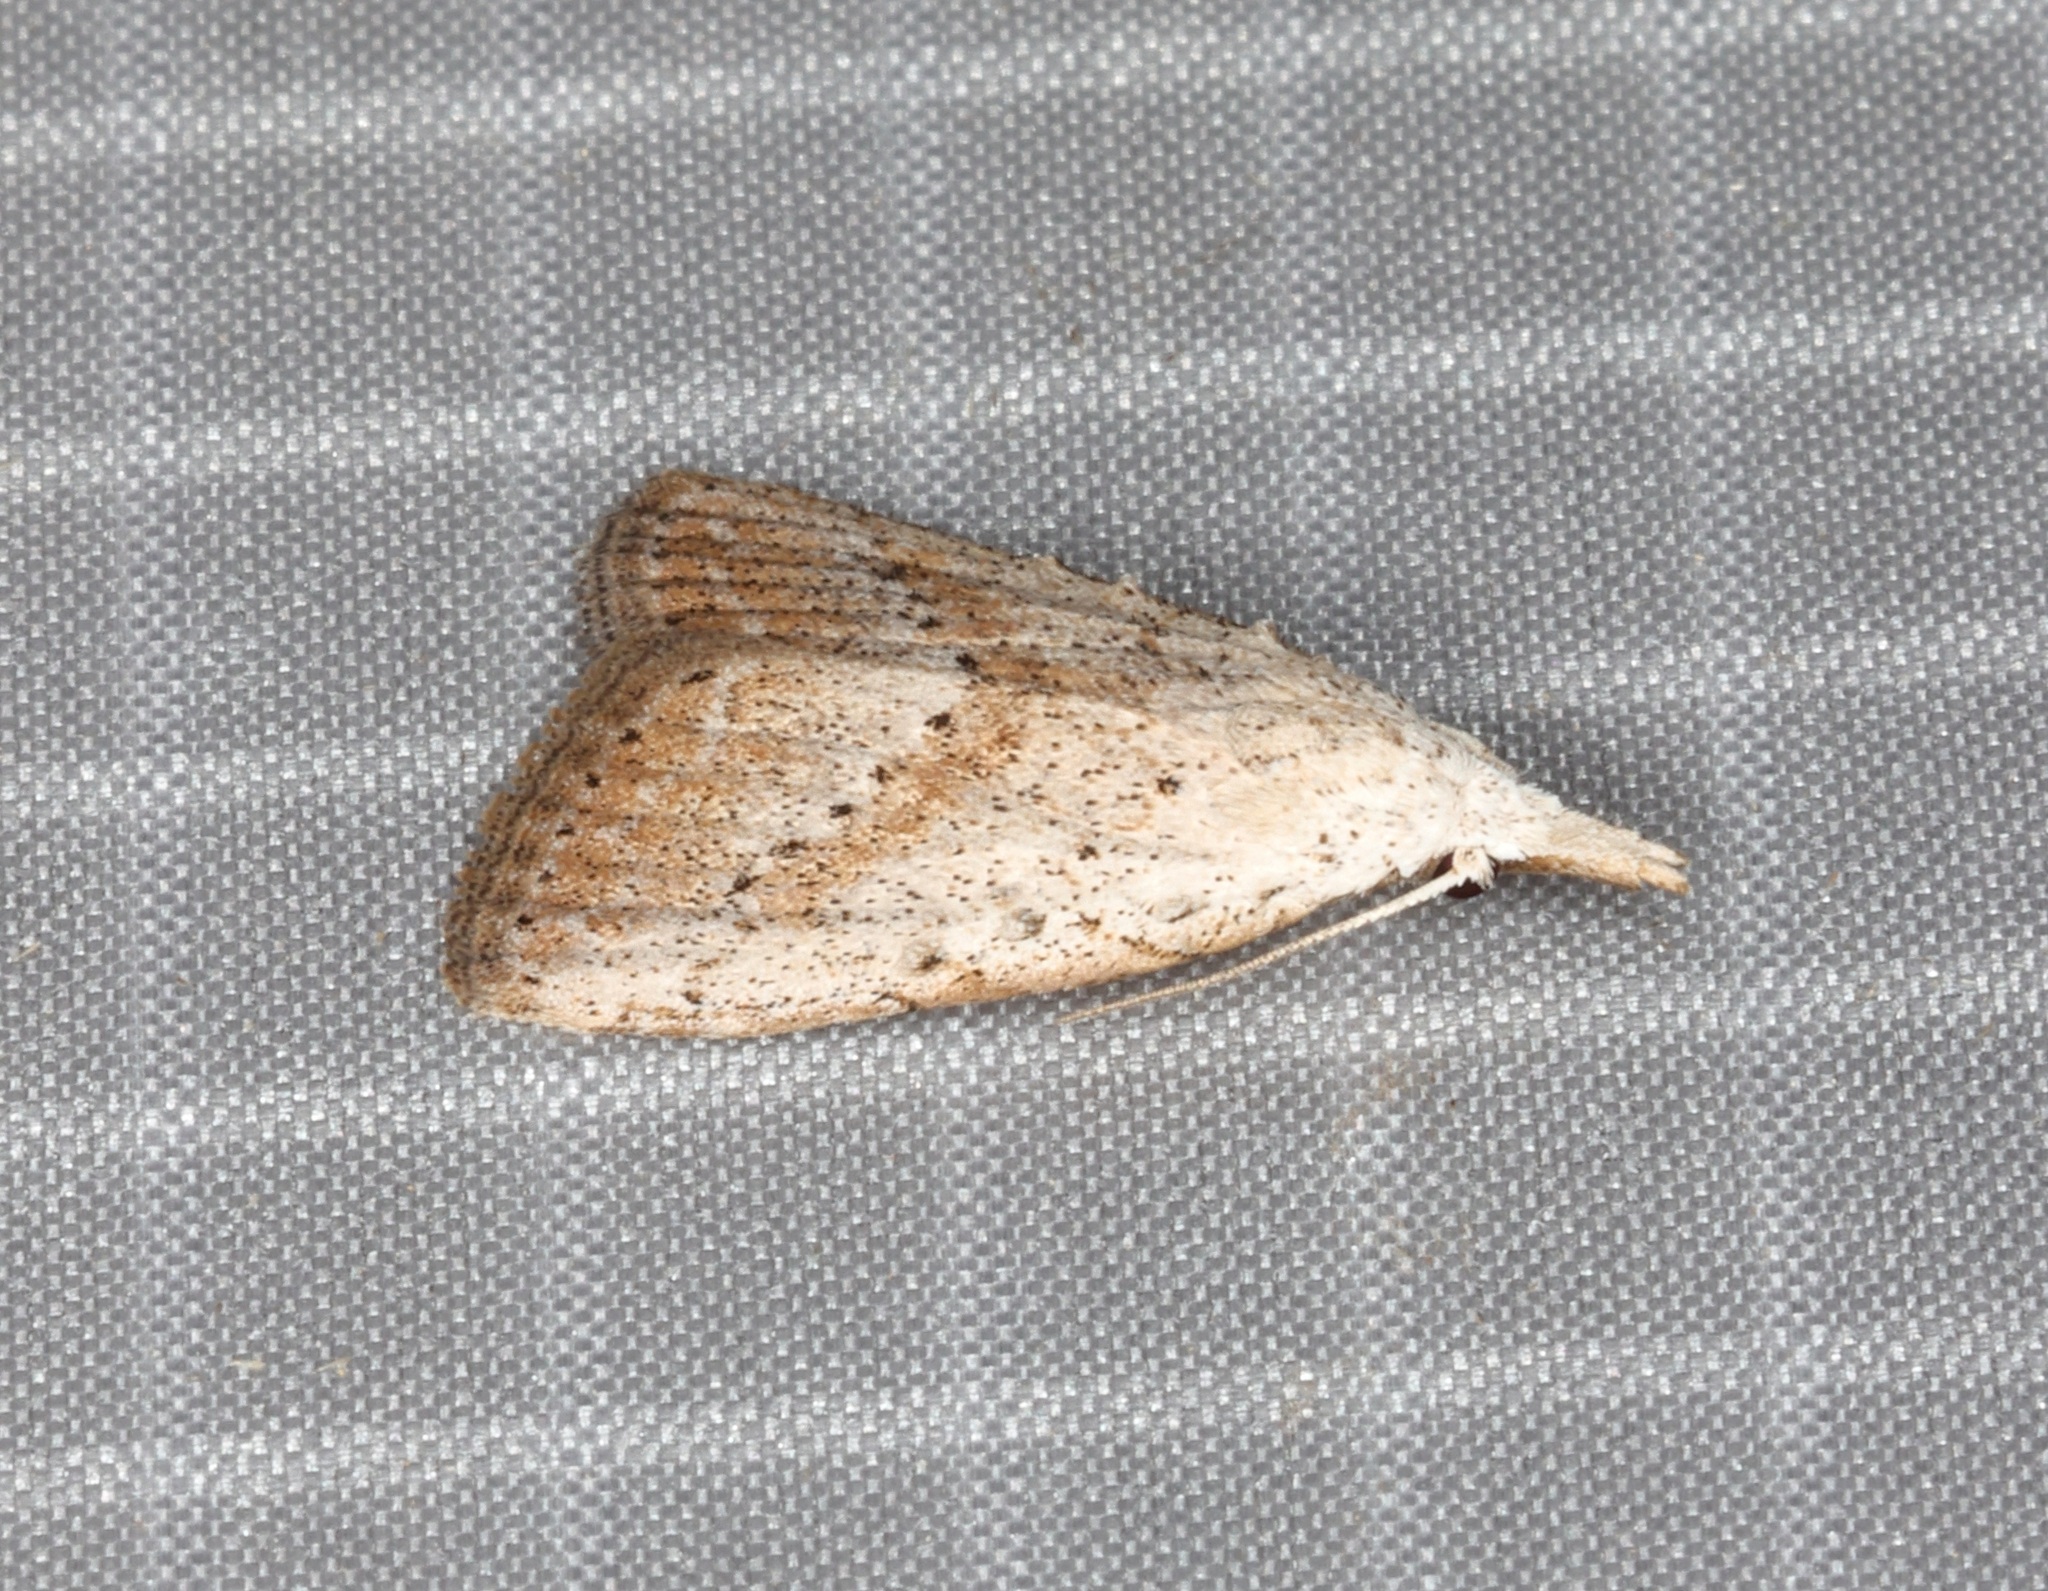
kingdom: Animalia
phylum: Arthropoda
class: Insecta
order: Lepidoptera
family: Nolidae
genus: Meganola
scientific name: Meganola brunellus
